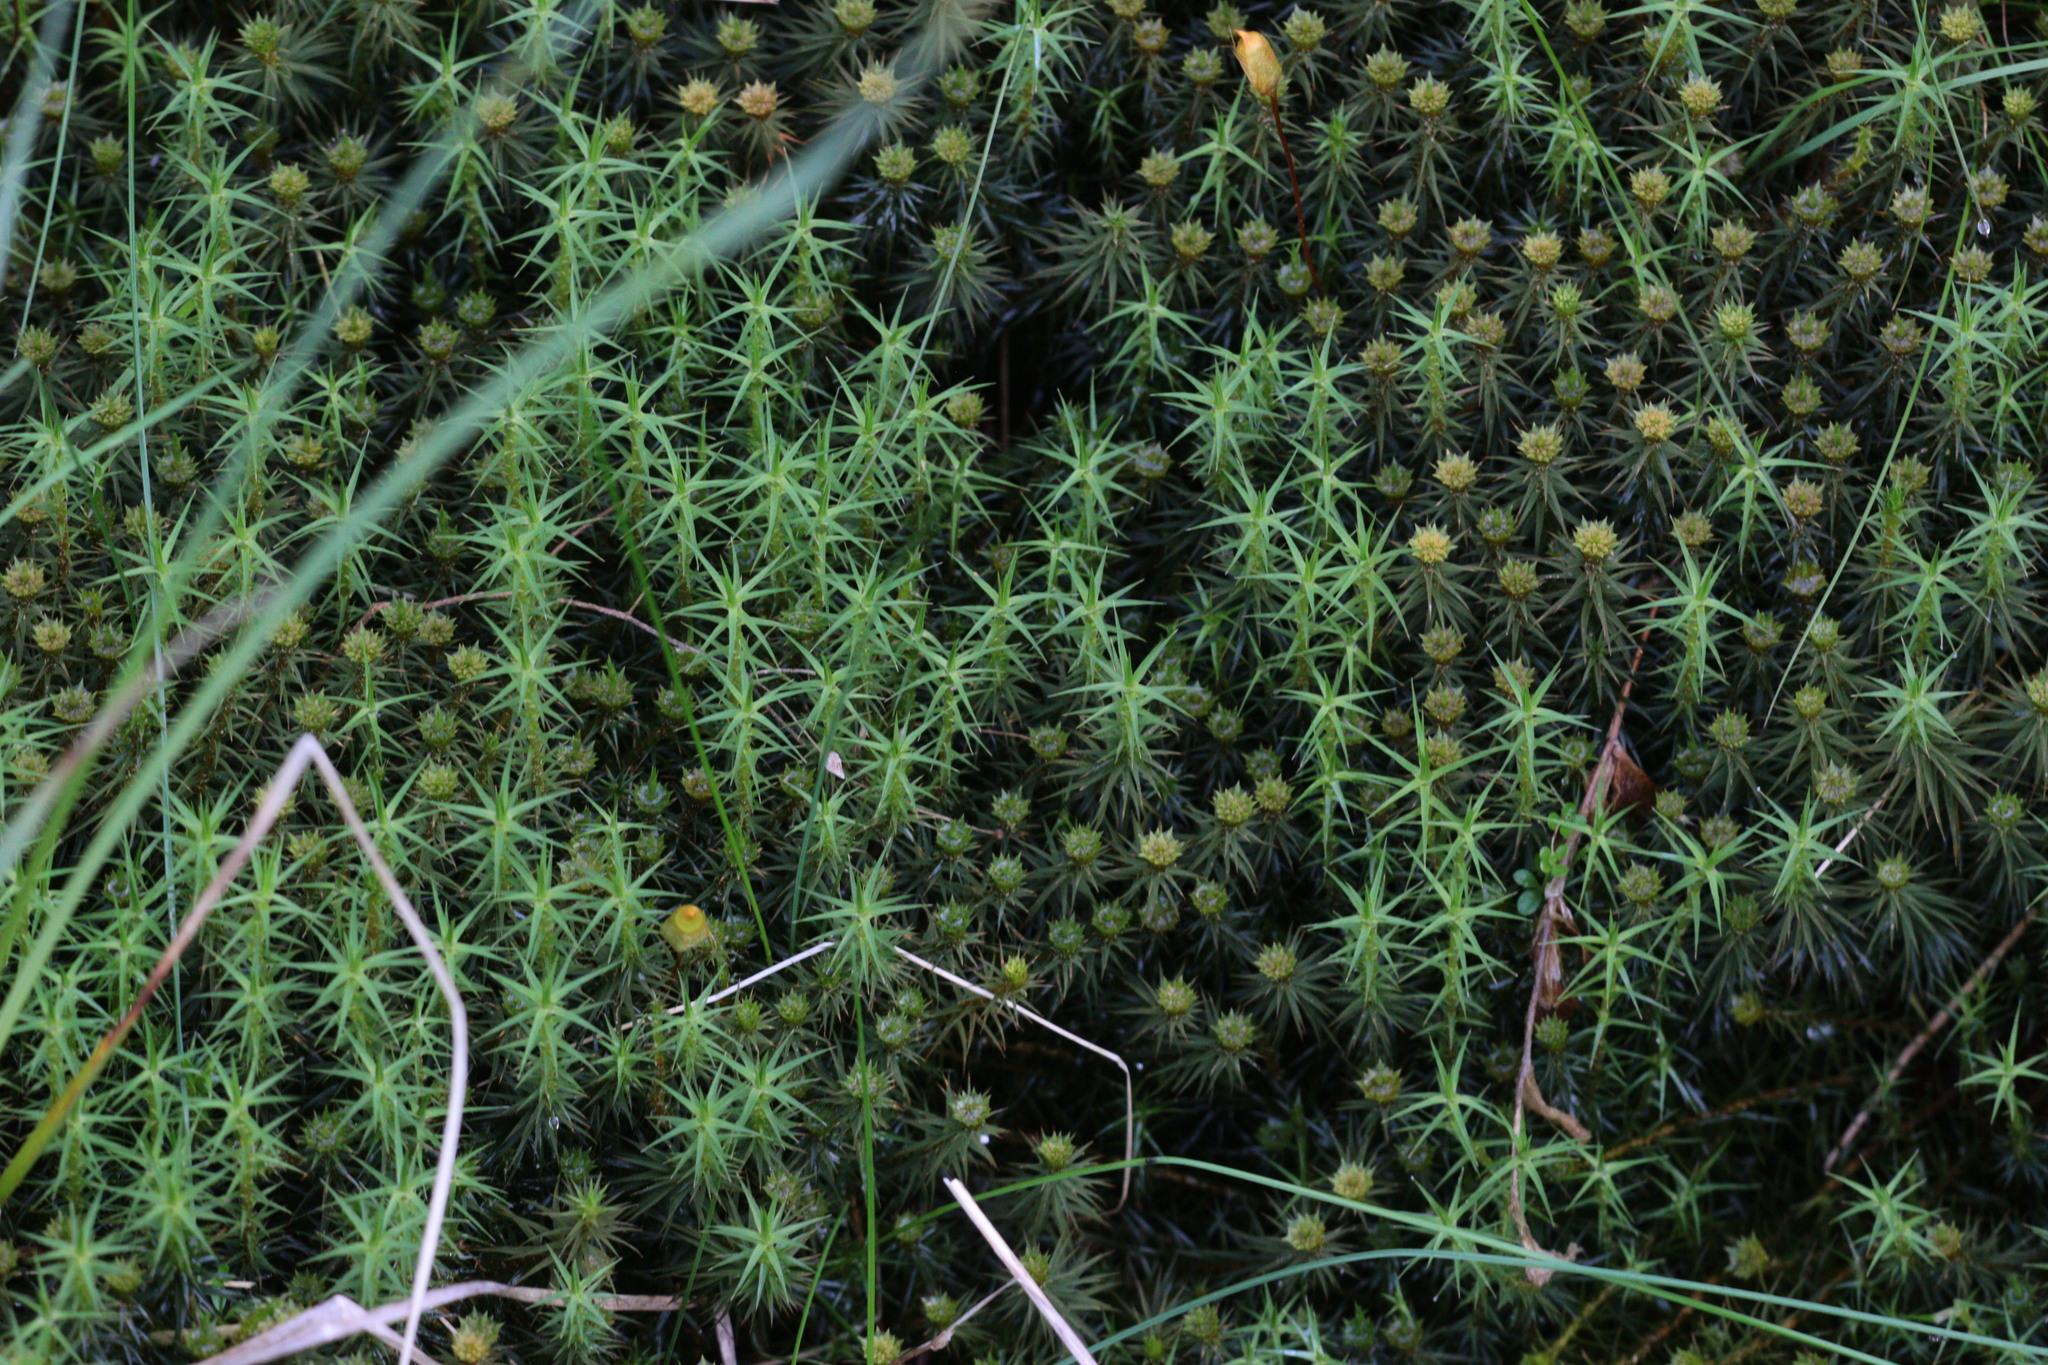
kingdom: Plantae
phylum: Bryophyta
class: Polytrichopsida
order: Polytrichales
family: Polytrichaceae
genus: Polytrichum
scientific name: Polytrichum commune
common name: Common haircap
